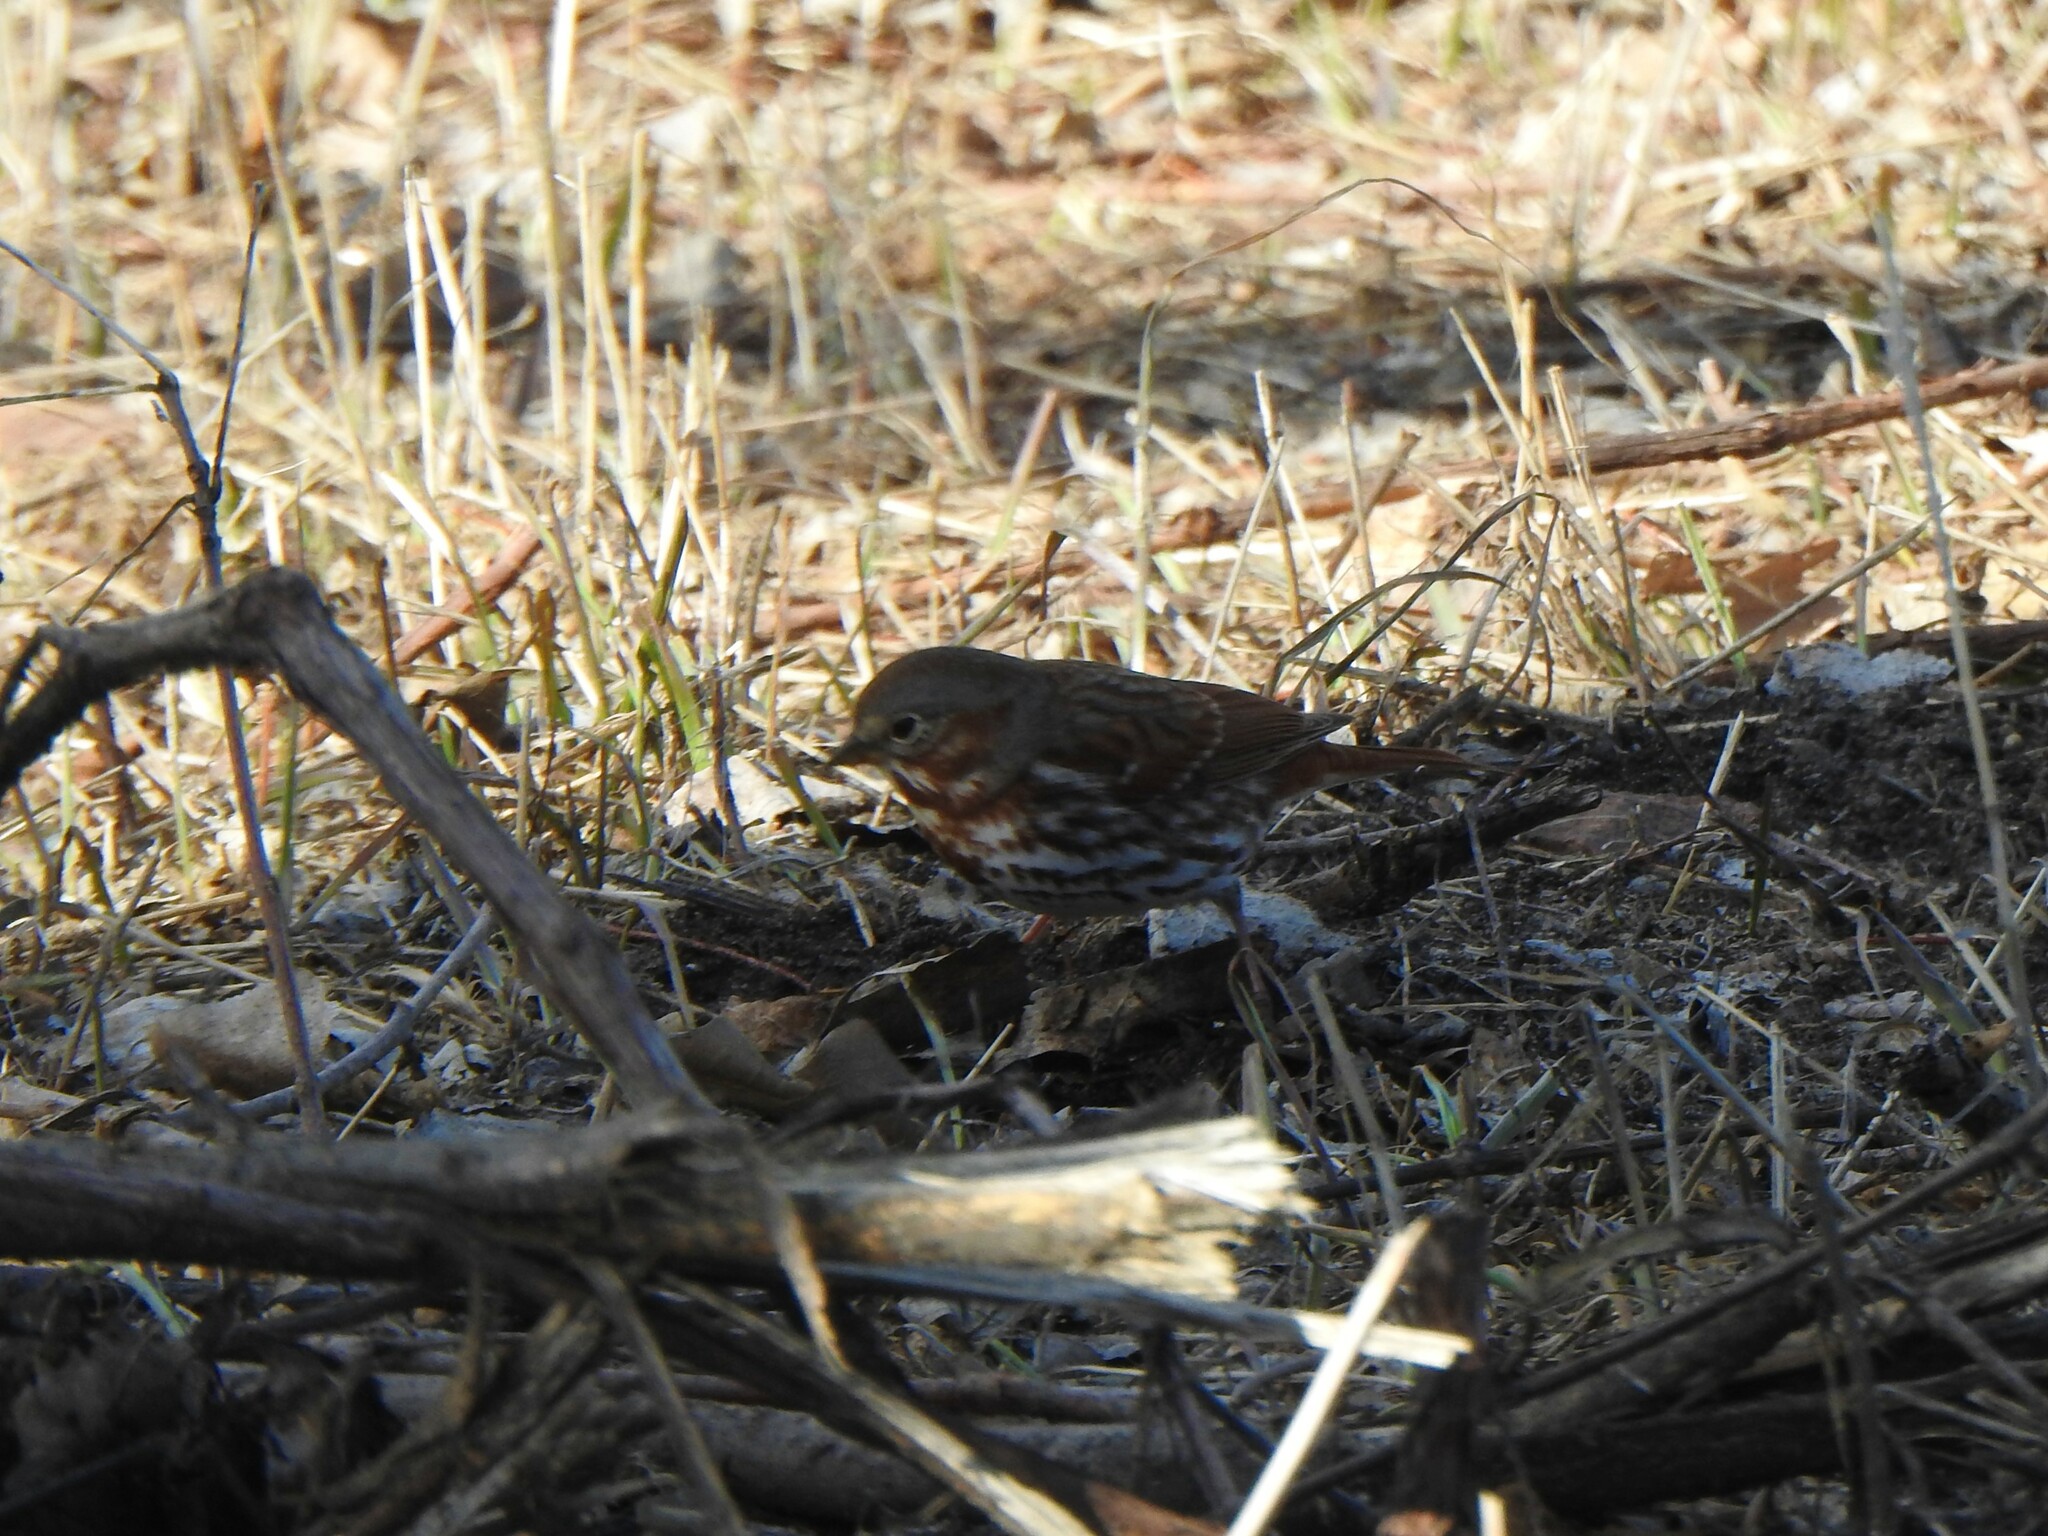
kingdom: Animalia
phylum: Chordata
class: Aves
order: Passeriformes
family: Passerellidae
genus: Passerella
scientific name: Passerella iliaca
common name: Fox sparrow
